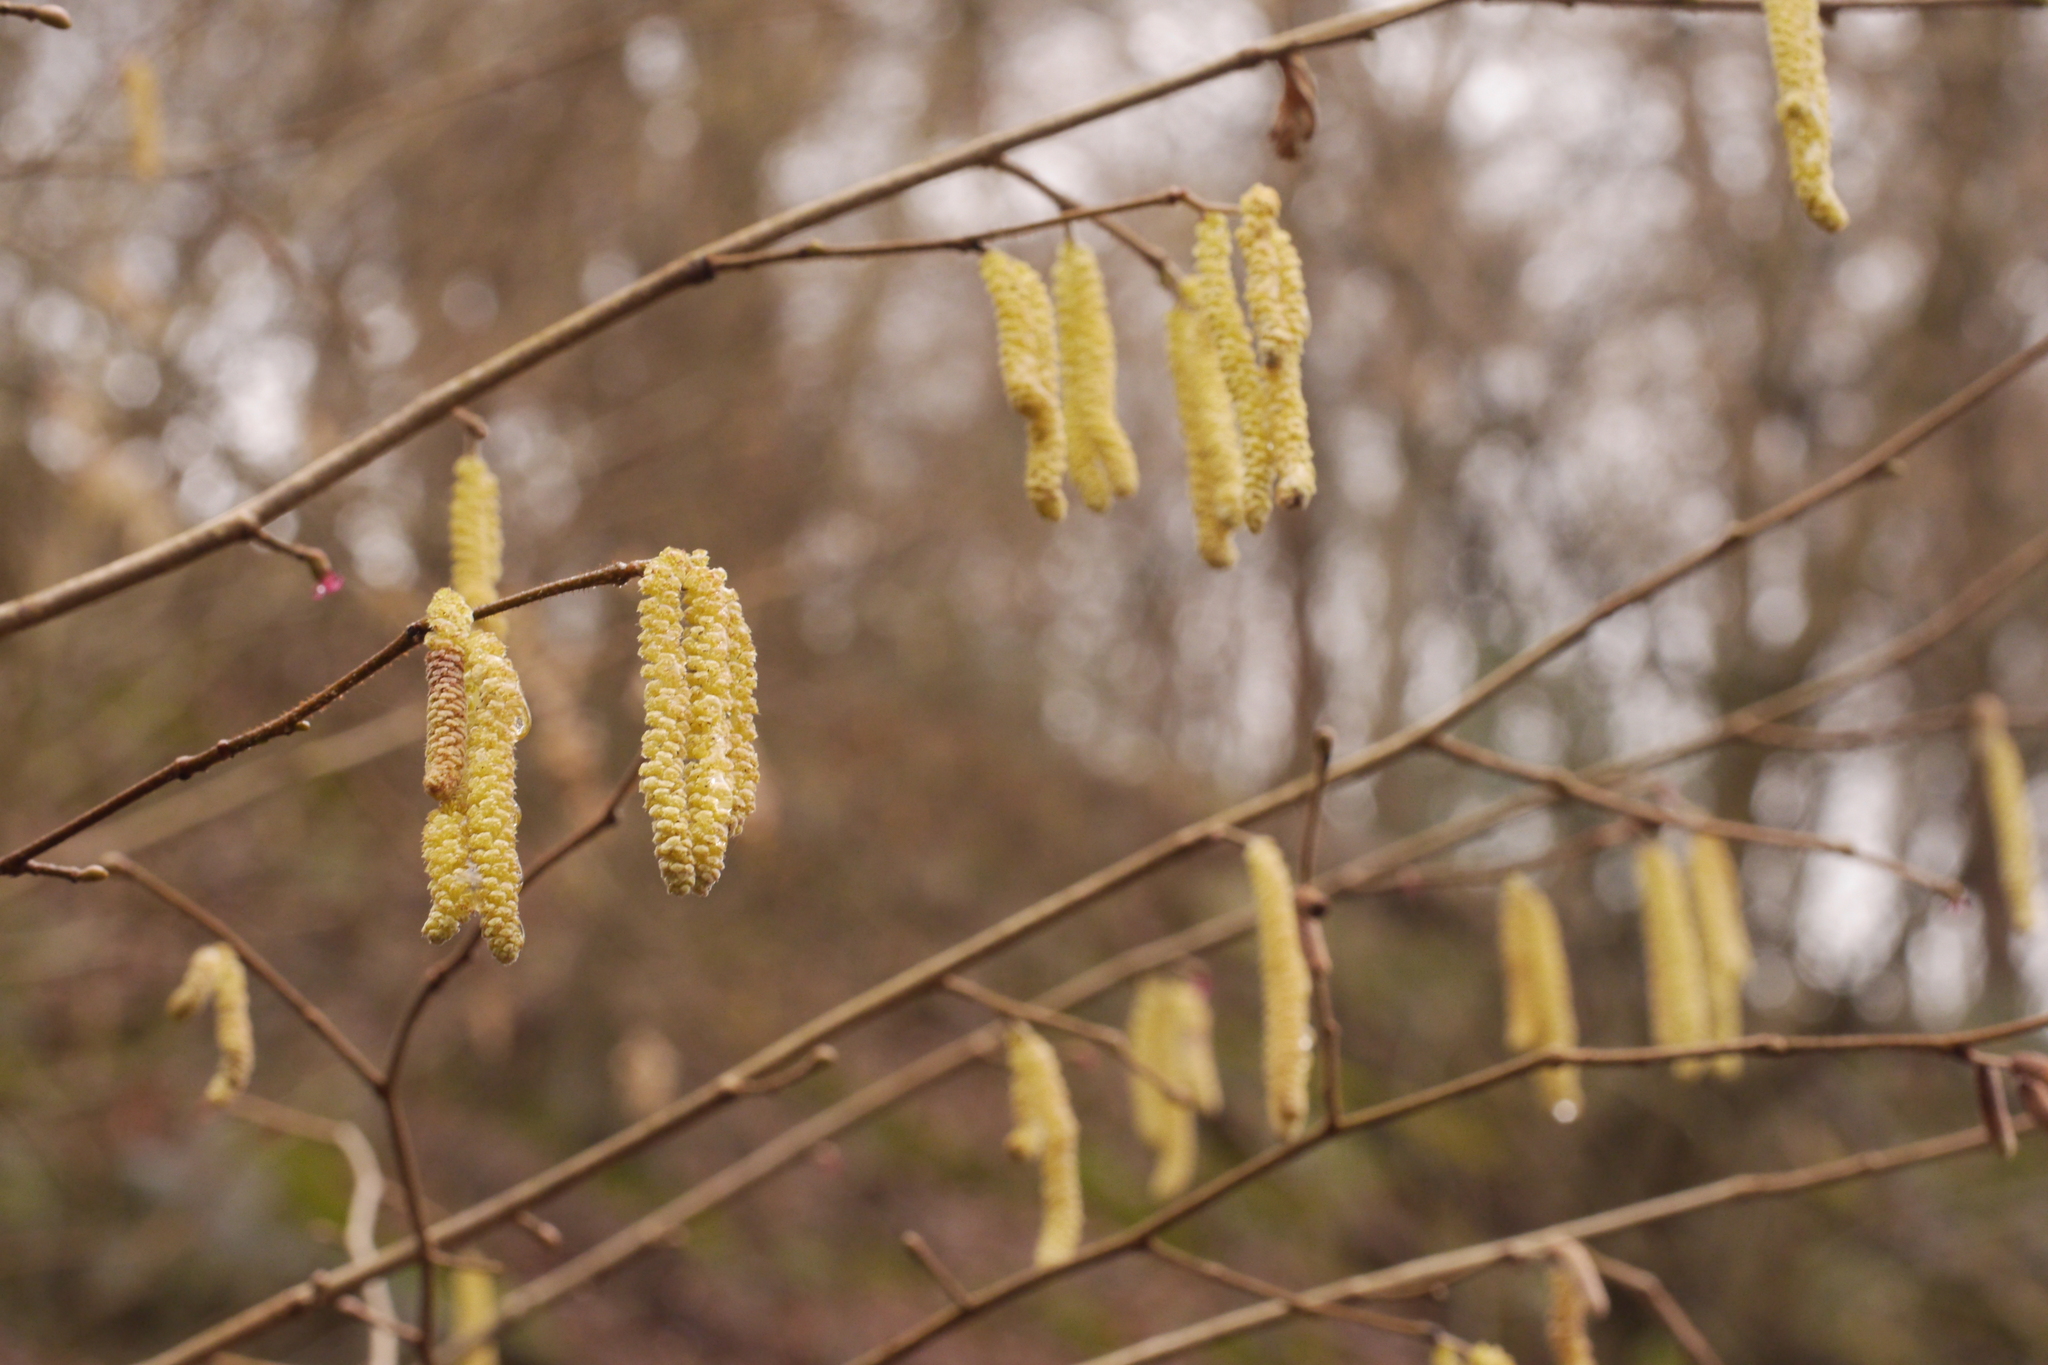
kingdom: Plantae
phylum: Tracheophyta
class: Magnoliopsida
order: Fagales
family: Betulaceae
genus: Corylus
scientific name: Corylus avellana
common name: European hazel
